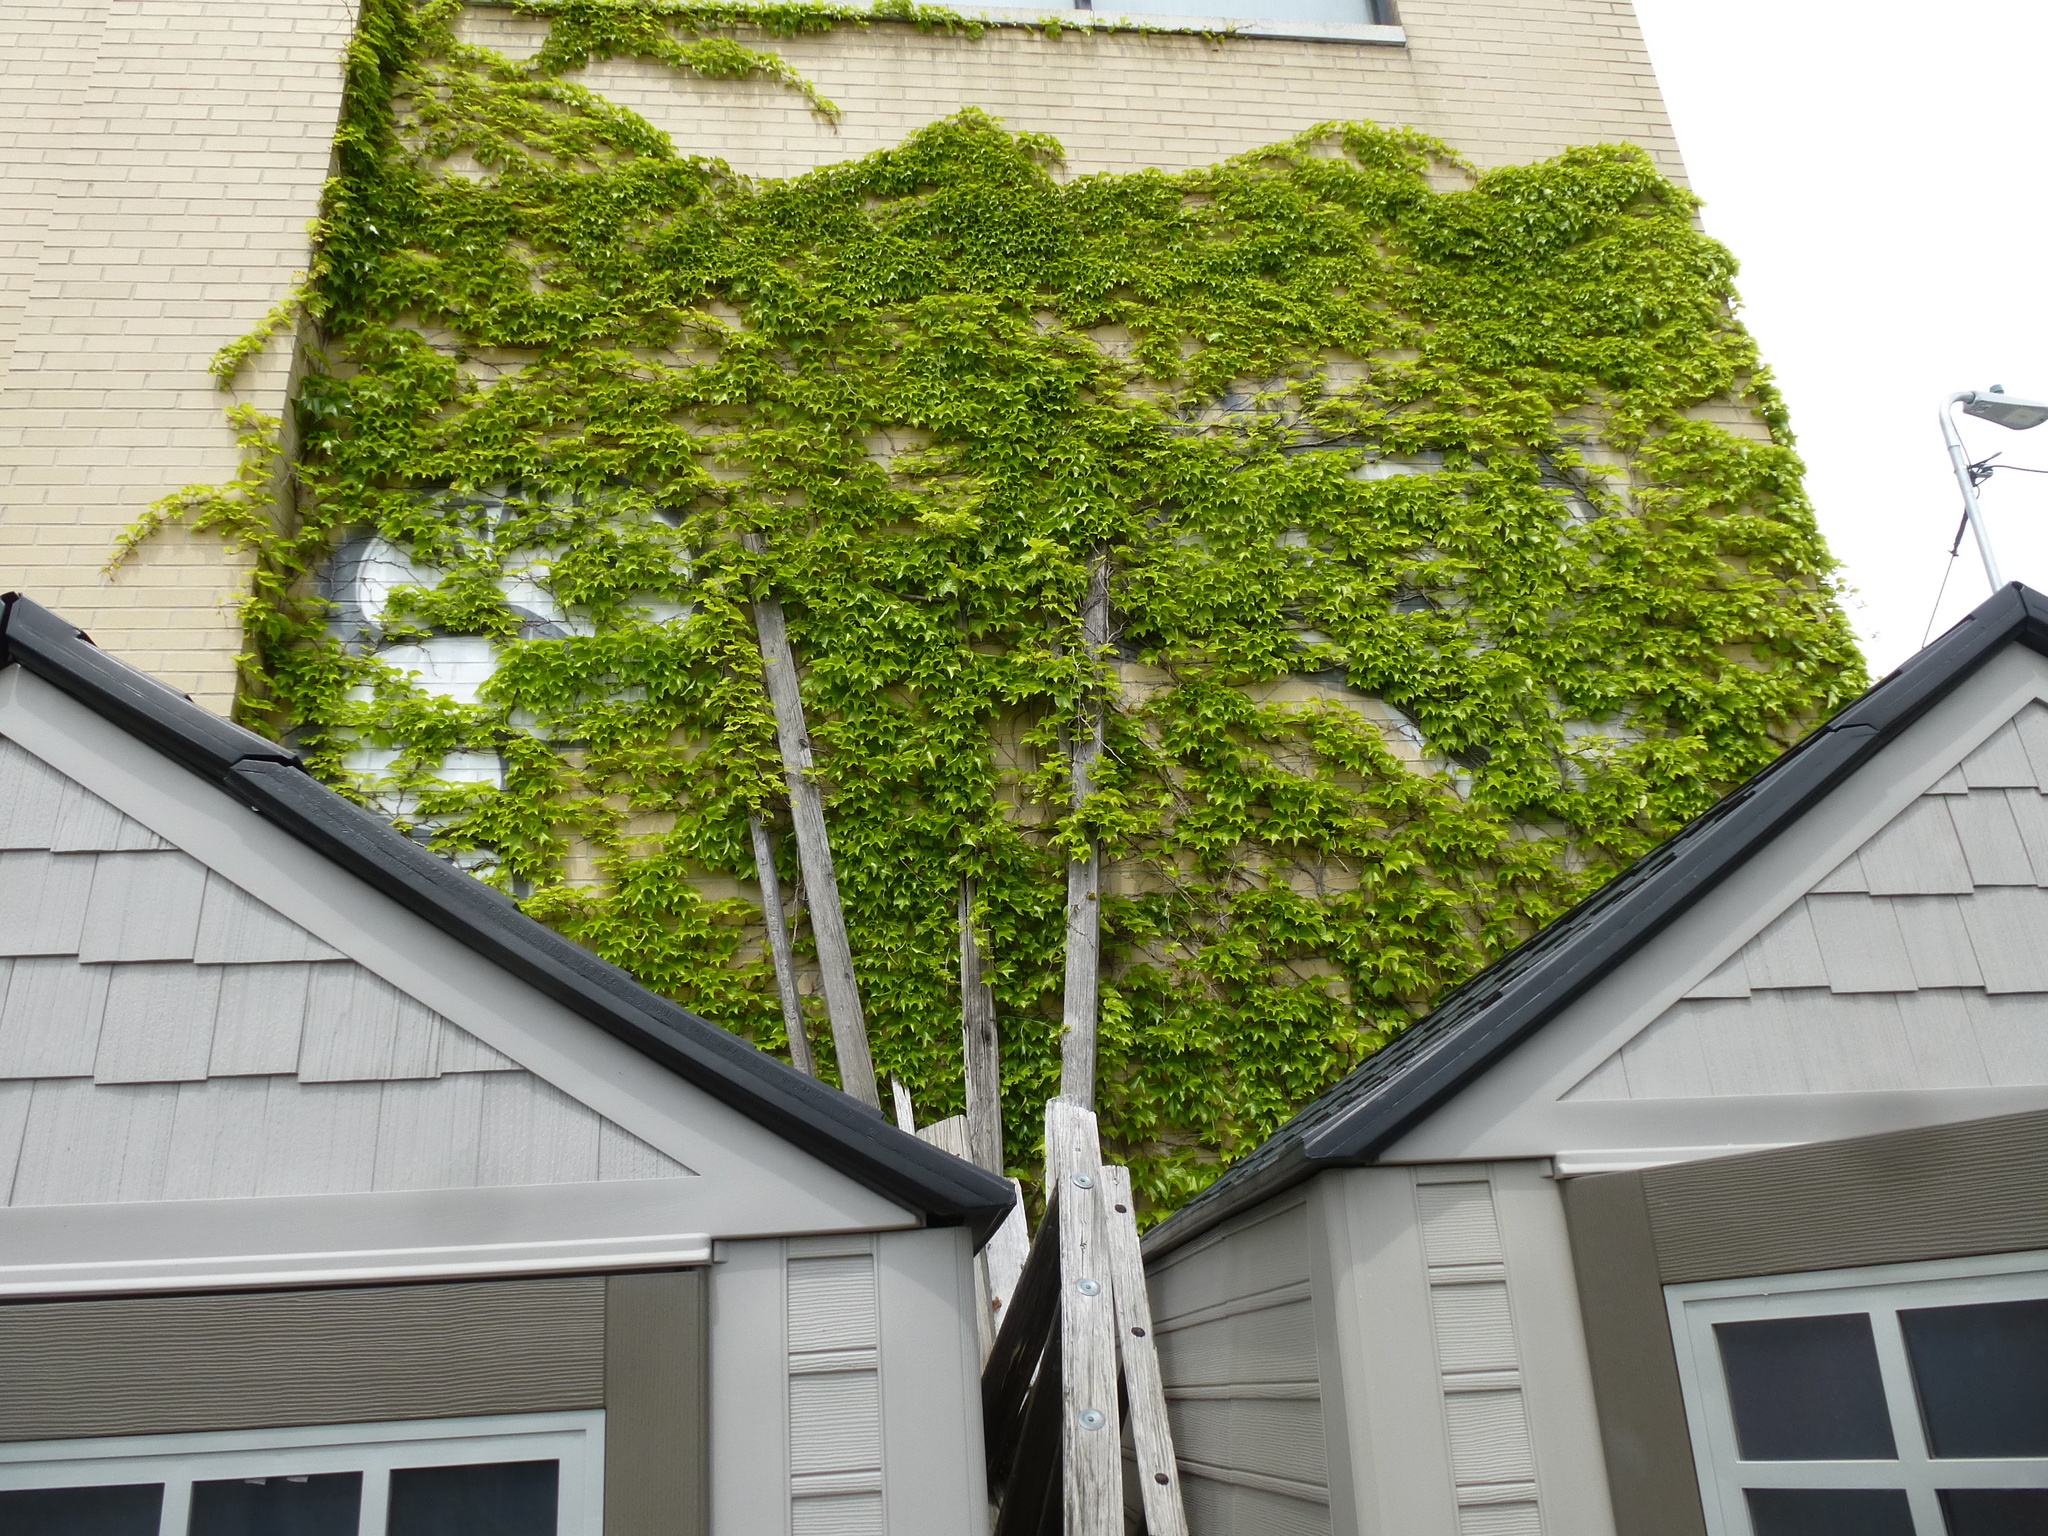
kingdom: Plantae
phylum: Tracheophyta
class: Magnoliopsida
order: Vitales
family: Vitaceae
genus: Parthenocissus
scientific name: Parthenocissus tricuspidata
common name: Boston ivy
